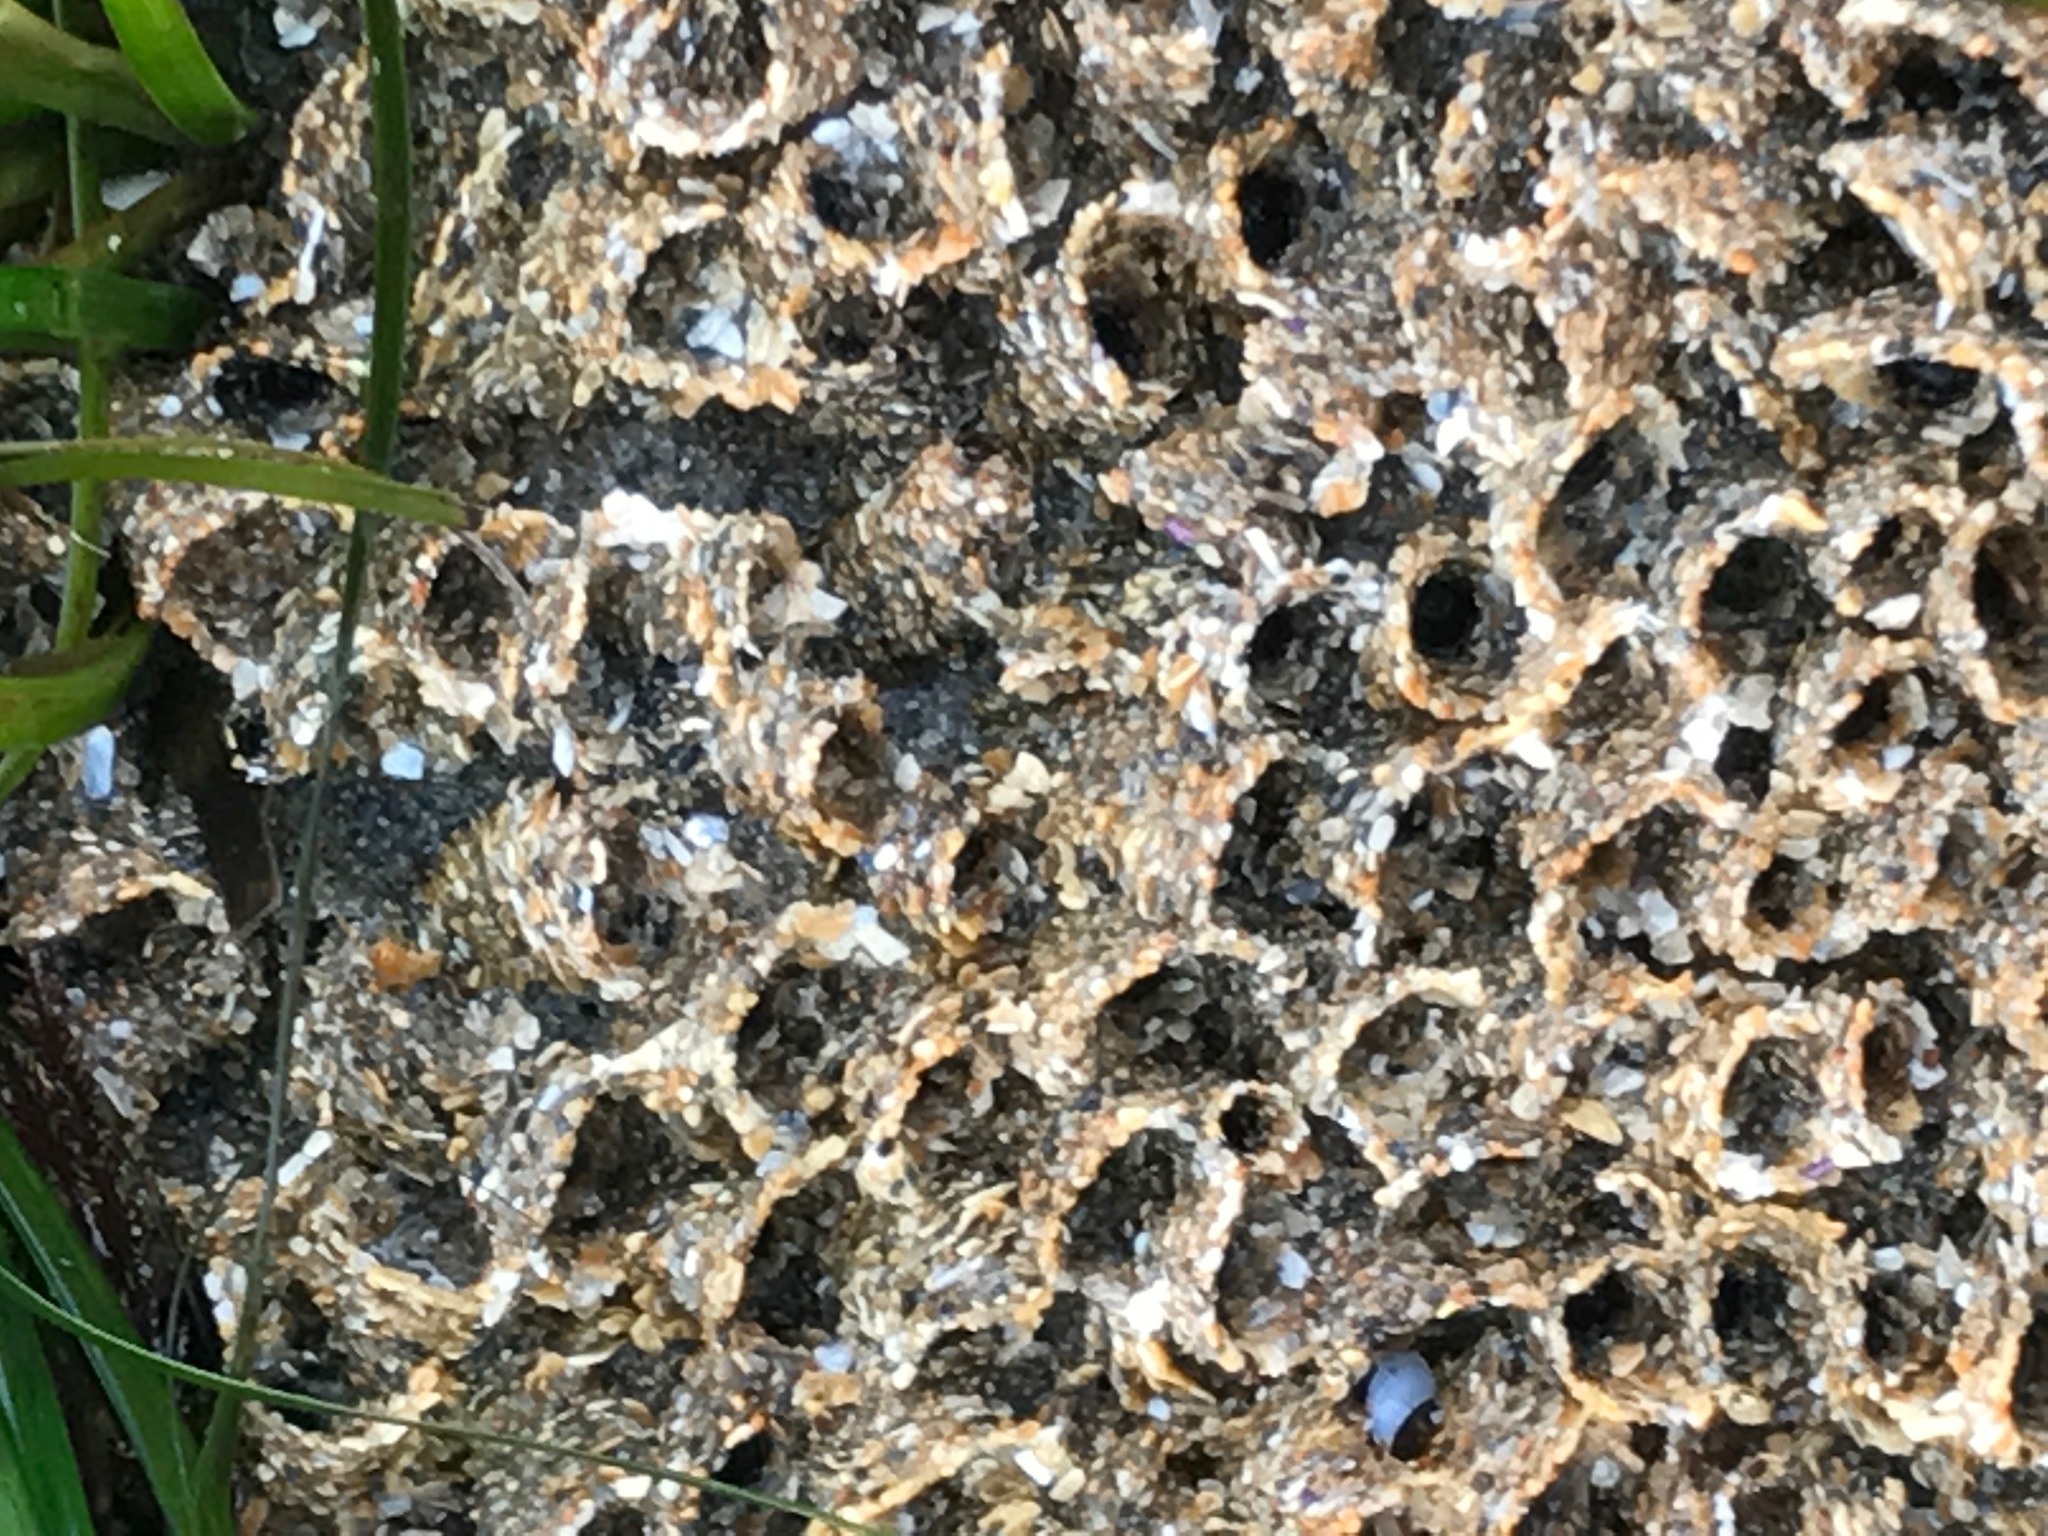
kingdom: Animalia
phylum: Annelida
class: Polychaeta
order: Sabellida
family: Sabellariidae
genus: Phragmatopoma
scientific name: Phragmatopoma californica
